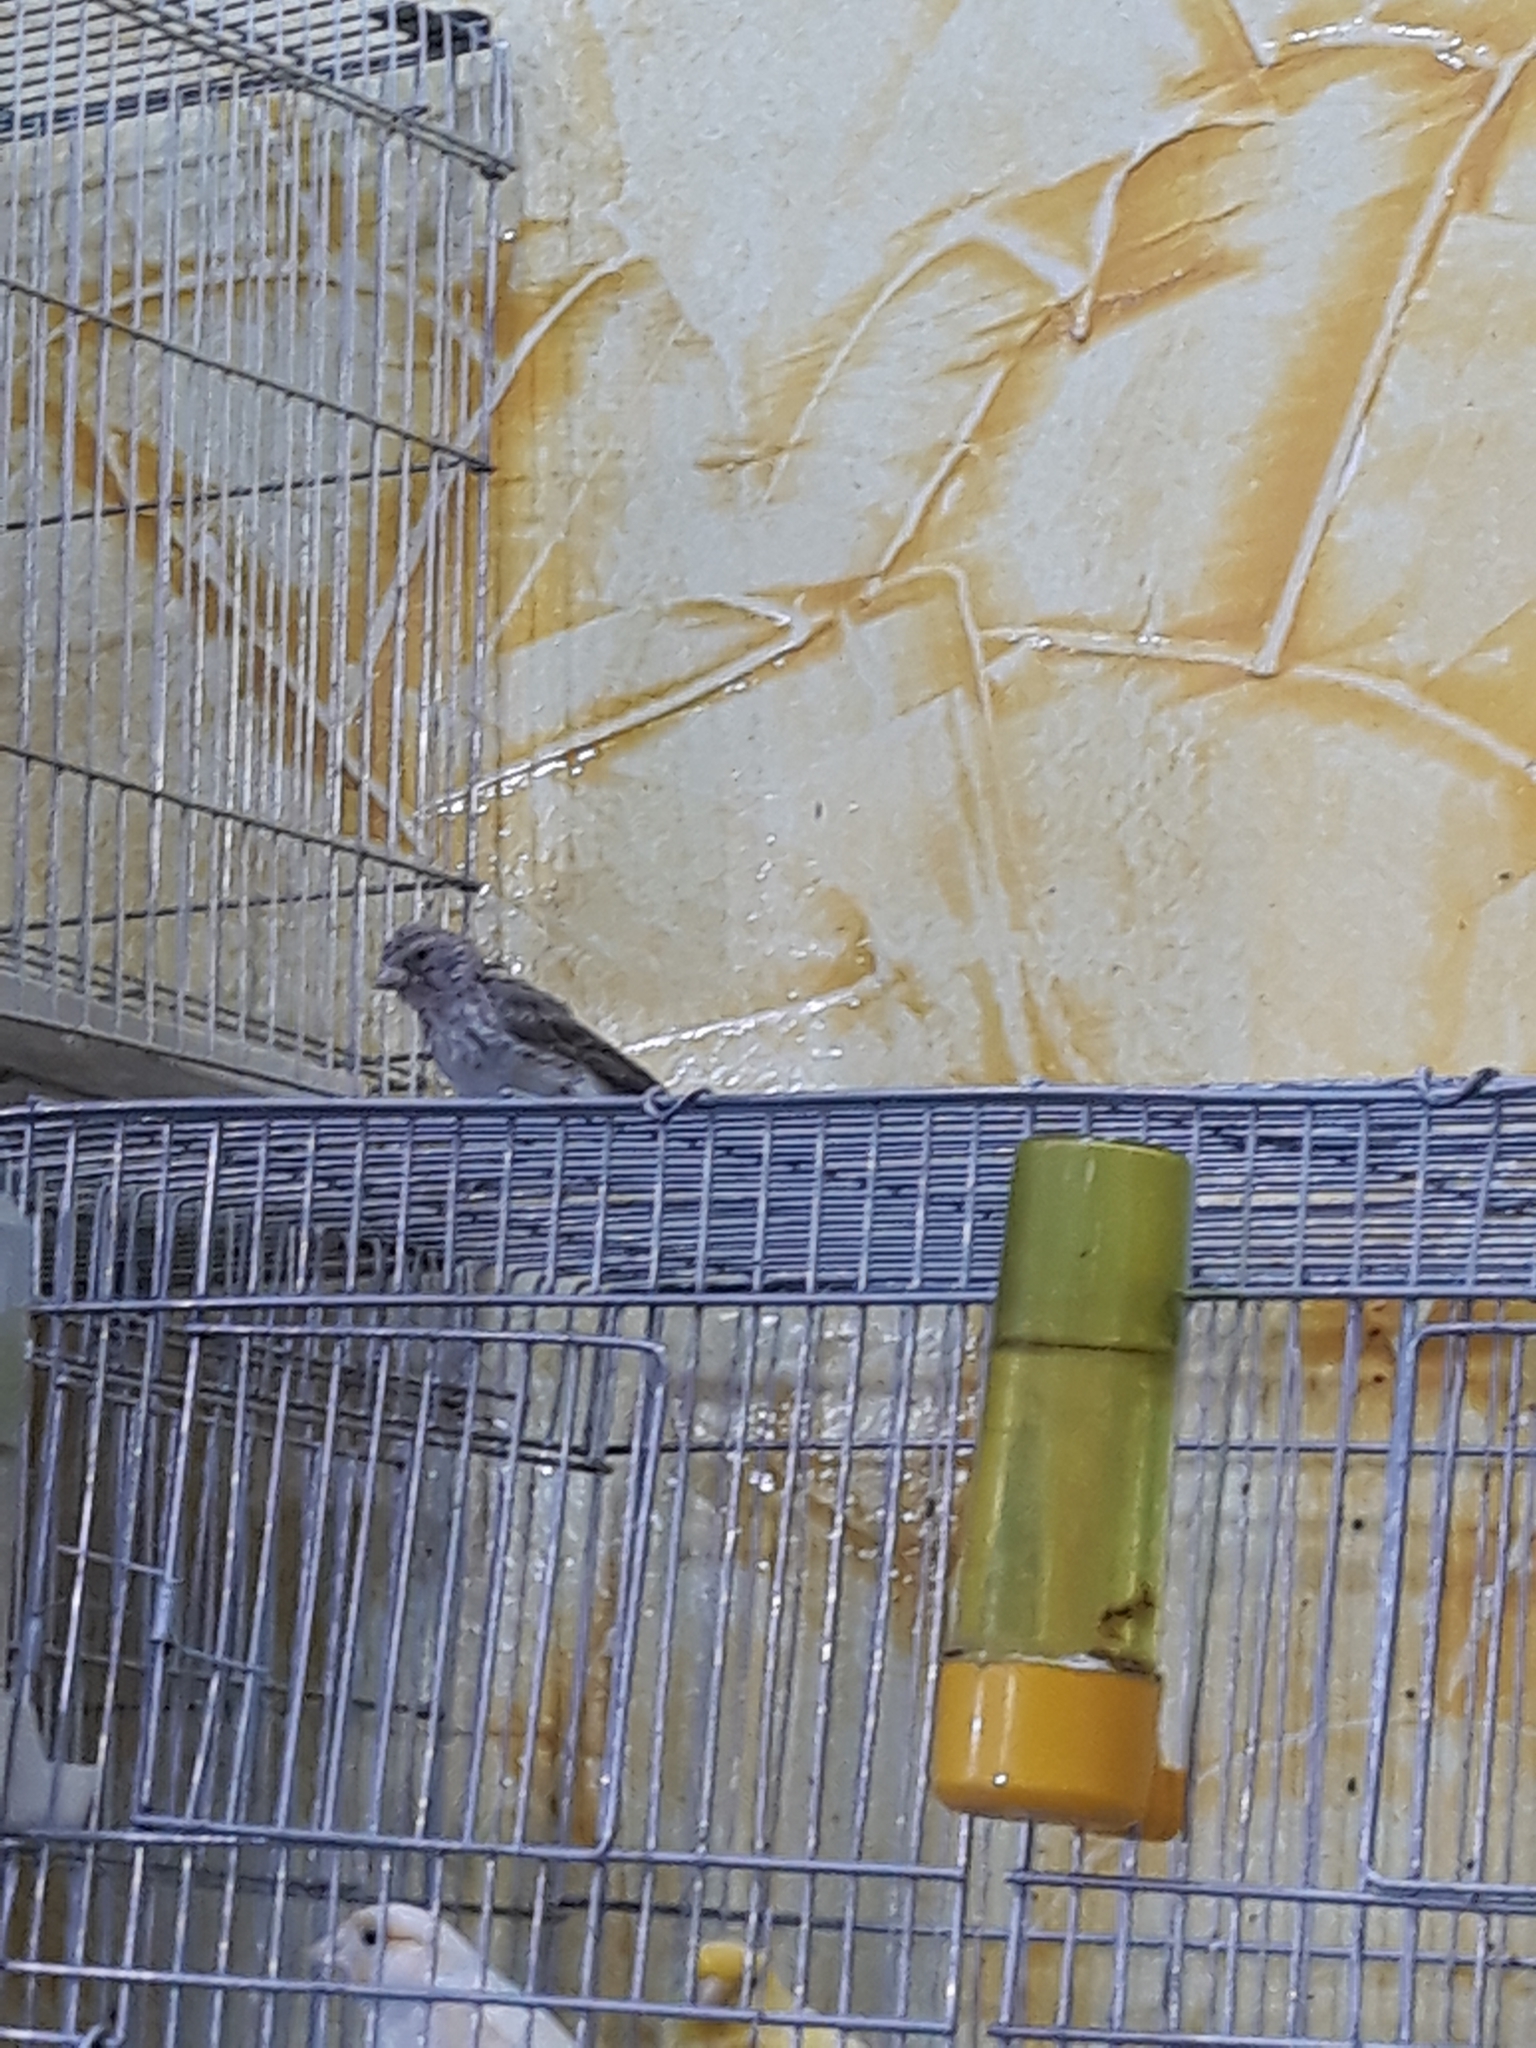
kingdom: Animalia
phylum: Chordata
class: Aves
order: Passeriformes
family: Fringillidae
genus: Crithagra
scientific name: Crithagra leucopygia
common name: White-rumped seedeater
